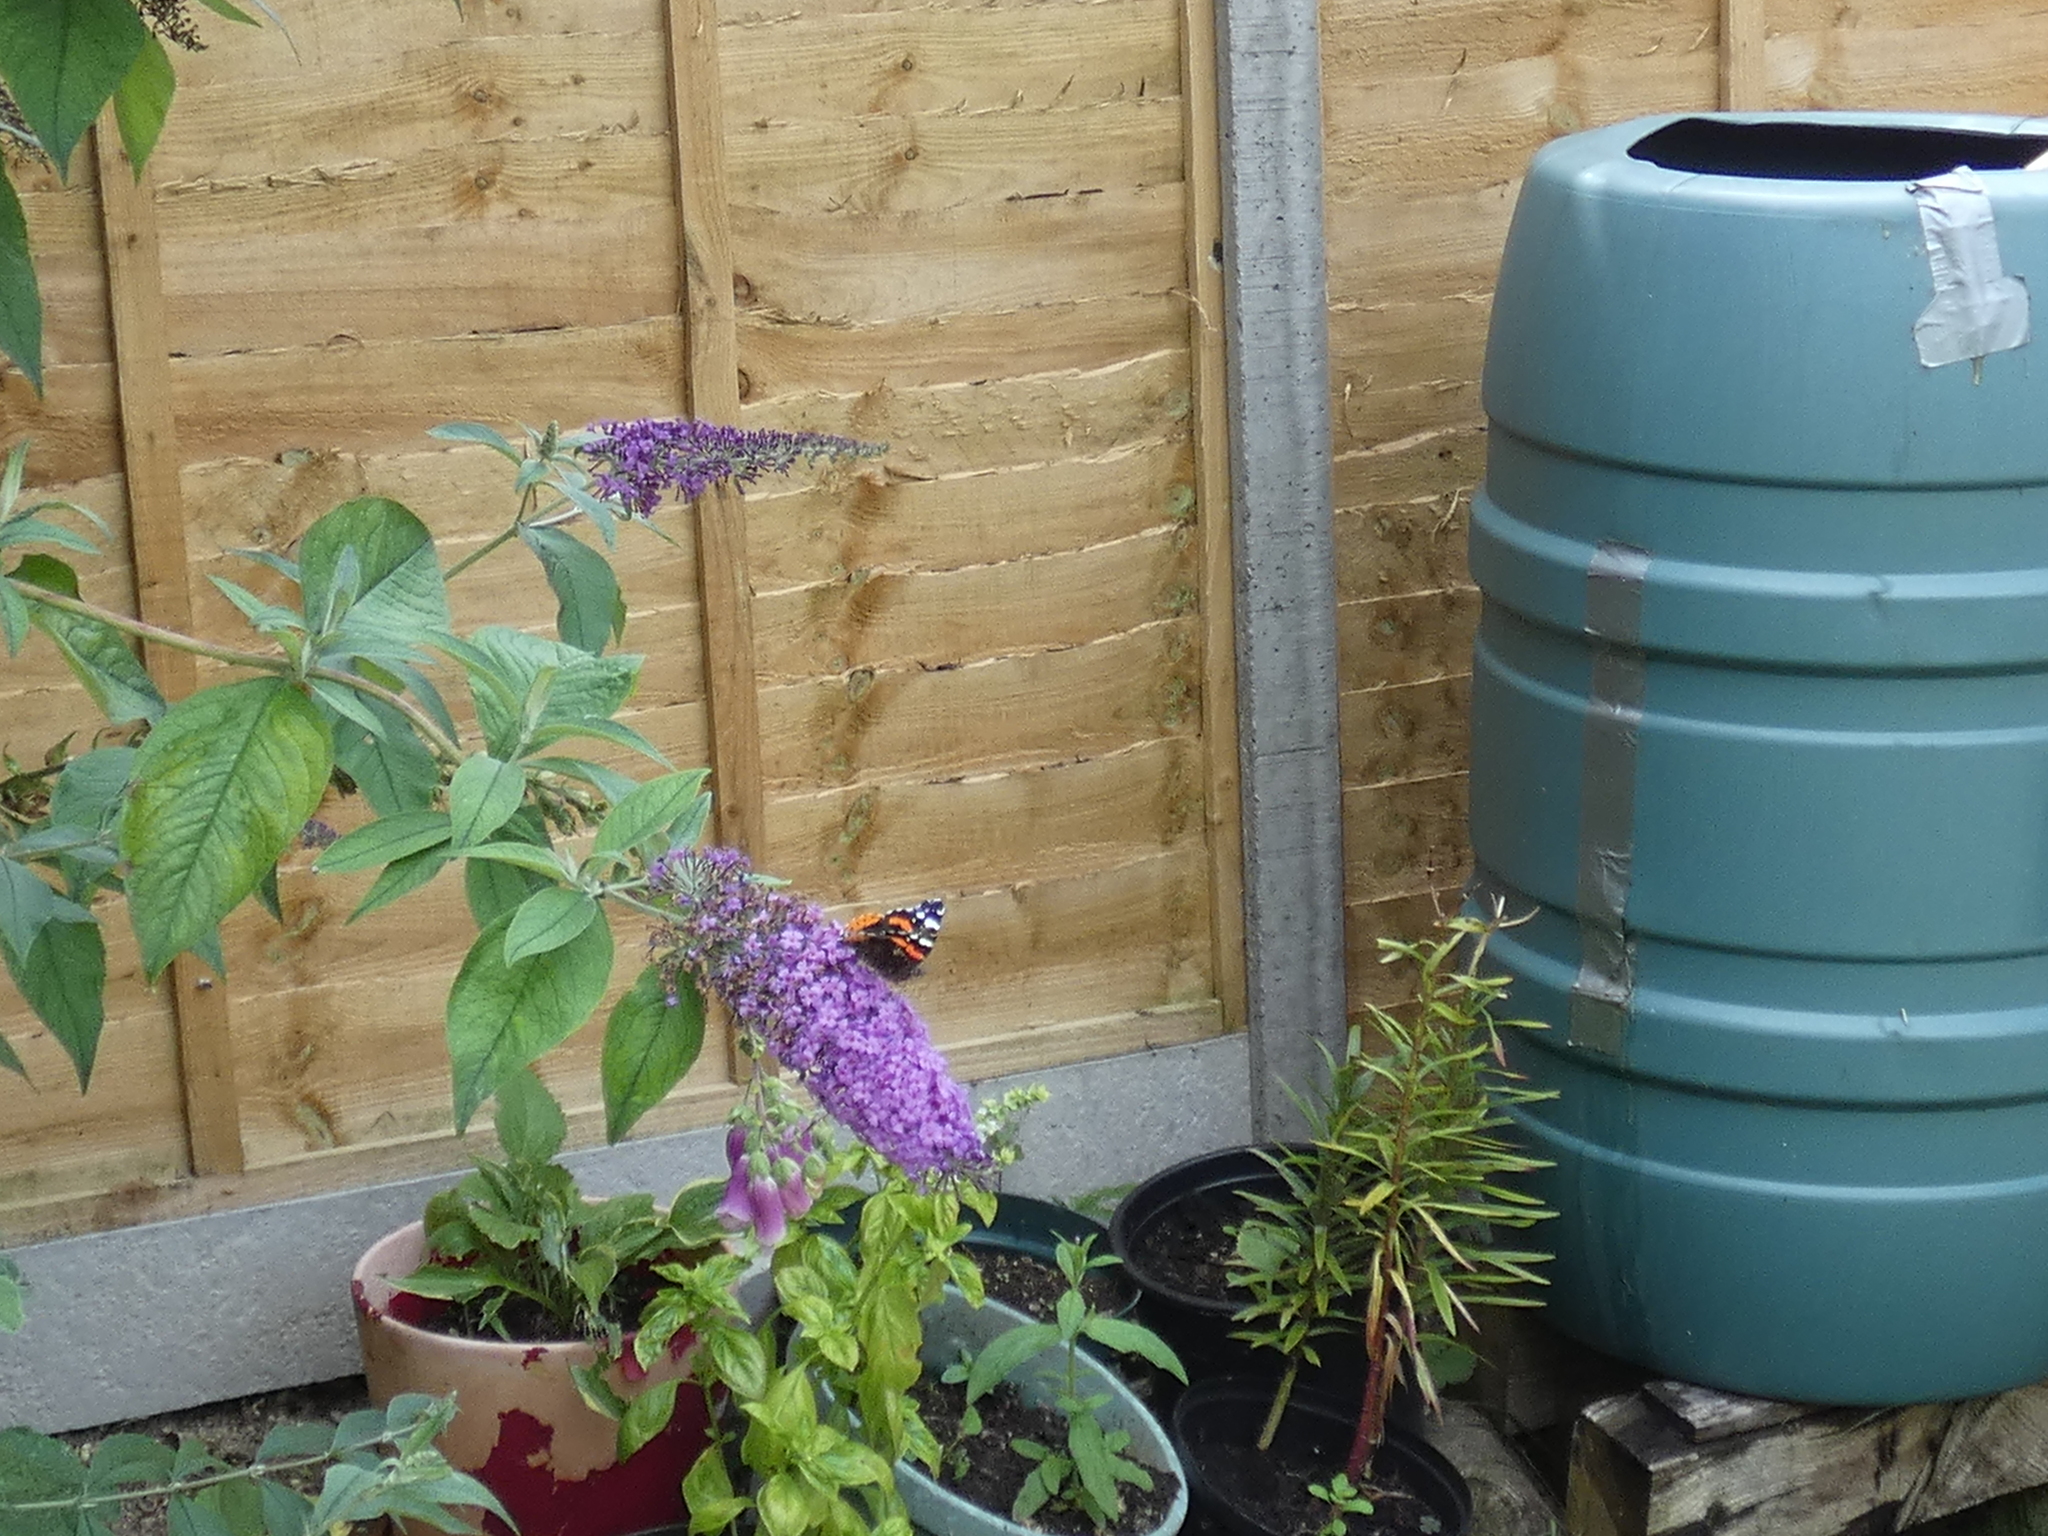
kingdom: Animalia
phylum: Arthropoda
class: Insecta
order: Lepidoptera
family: Nymphalidae
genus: Vanessa
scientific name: Vanessa atalanta
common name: Red admiral
